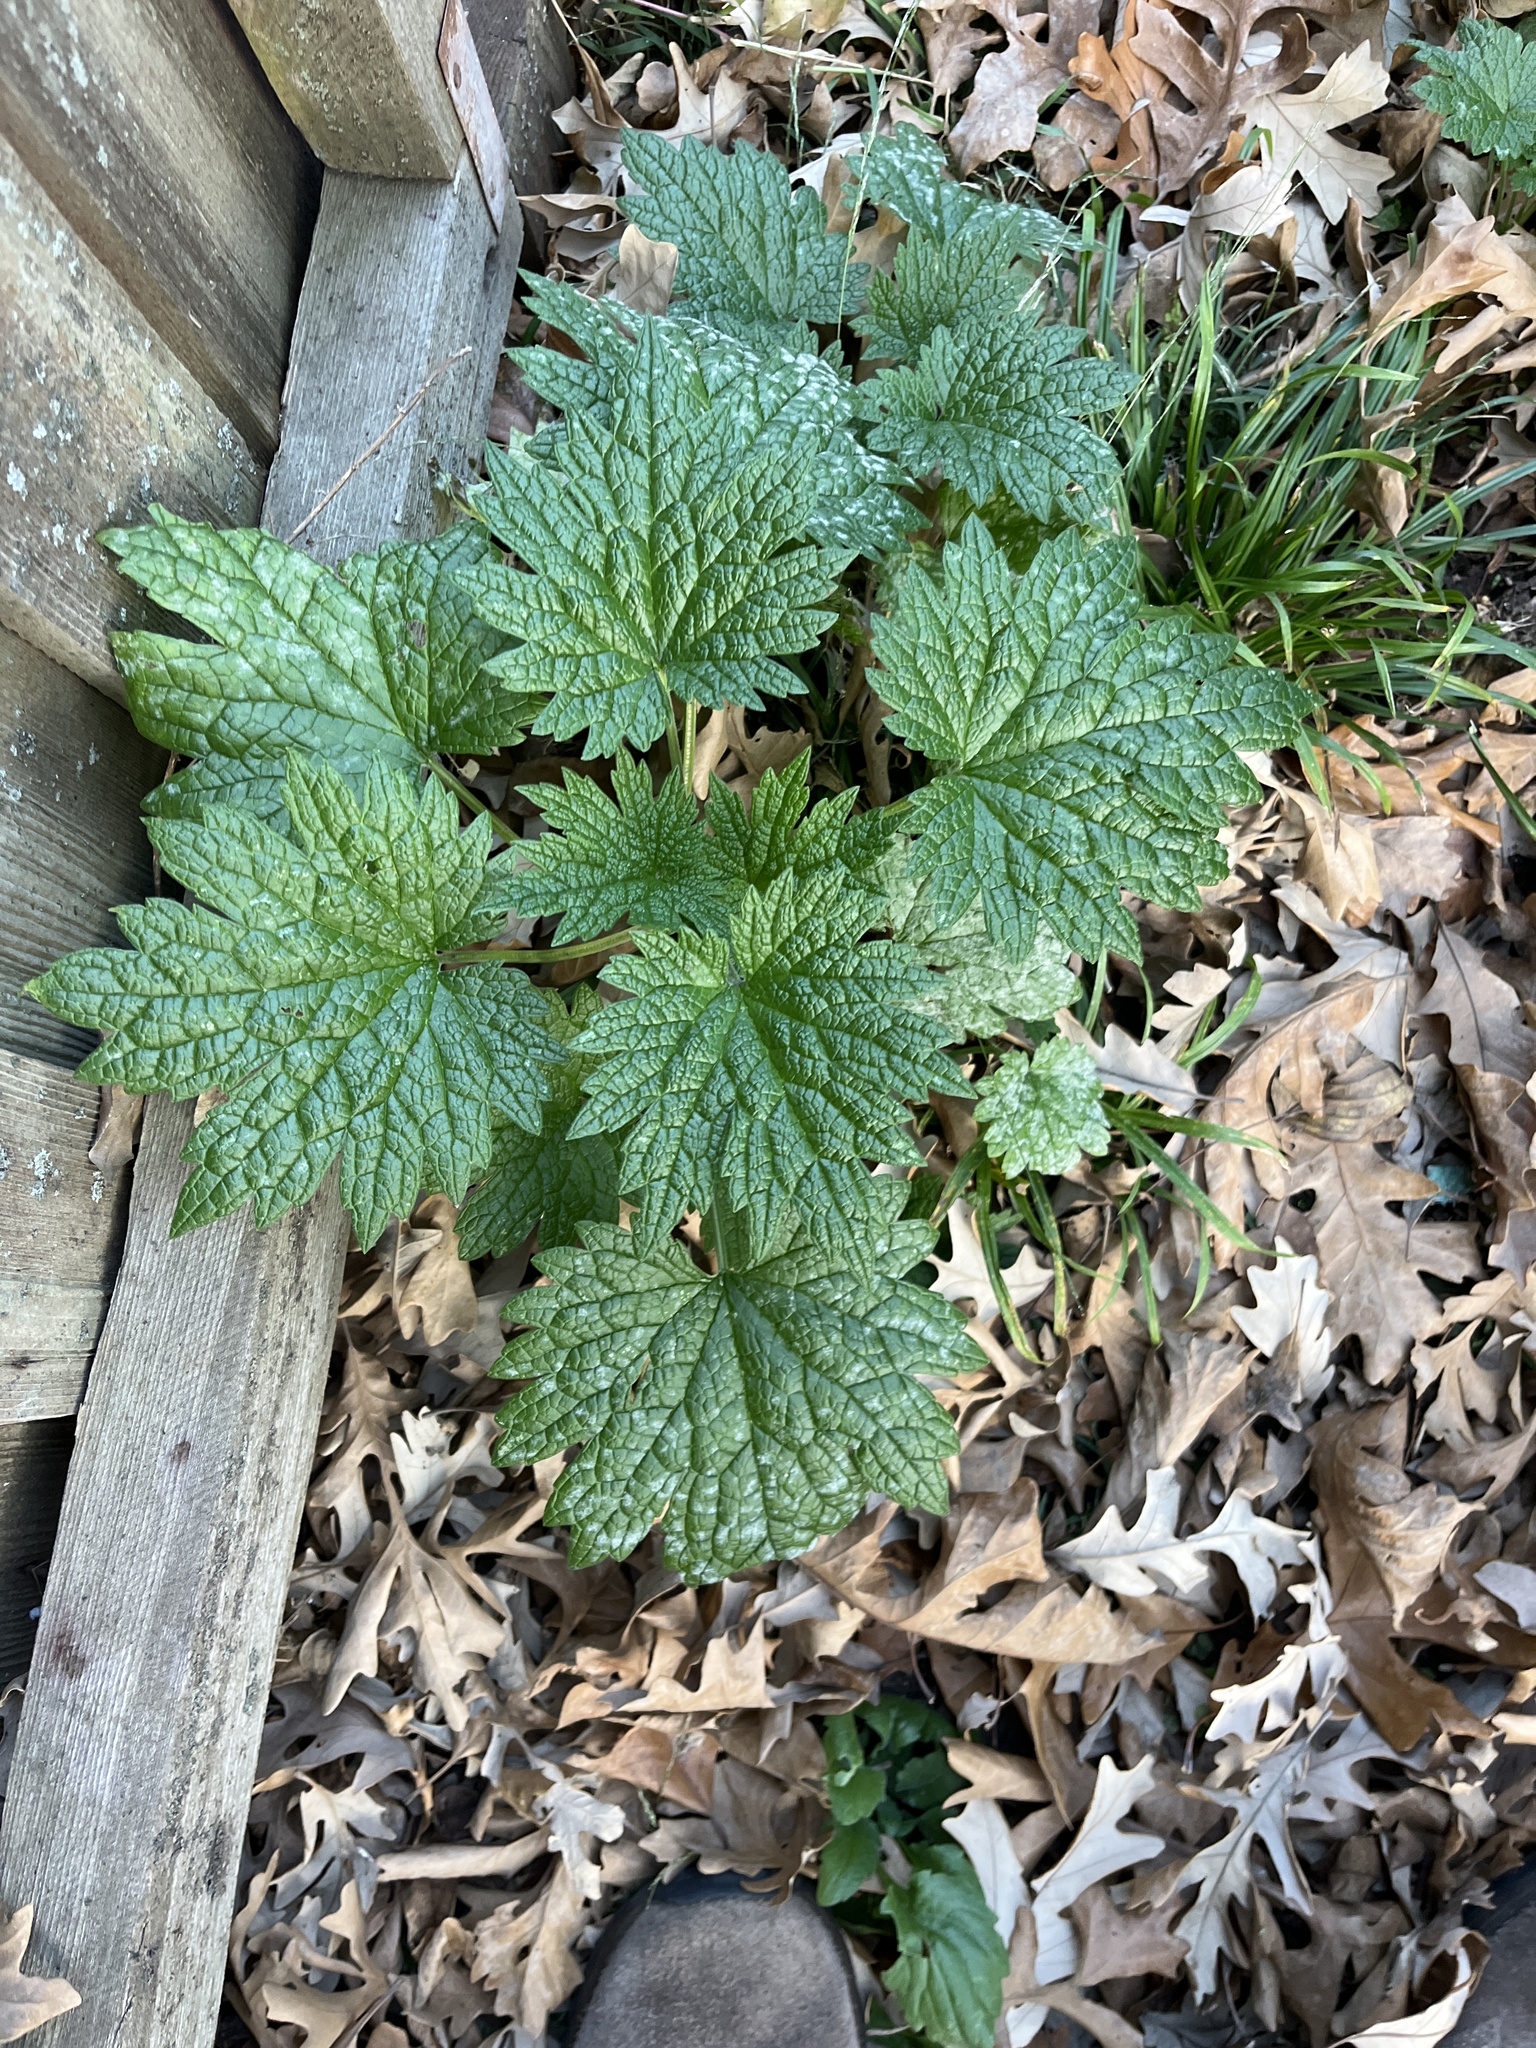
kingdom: Plantae
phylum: Tracheophyta
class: Magnoliopsida
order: Lamiales
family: Lamiaceae
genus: Leonurus
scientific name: Leonurus cardiaca
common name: Motherwort
